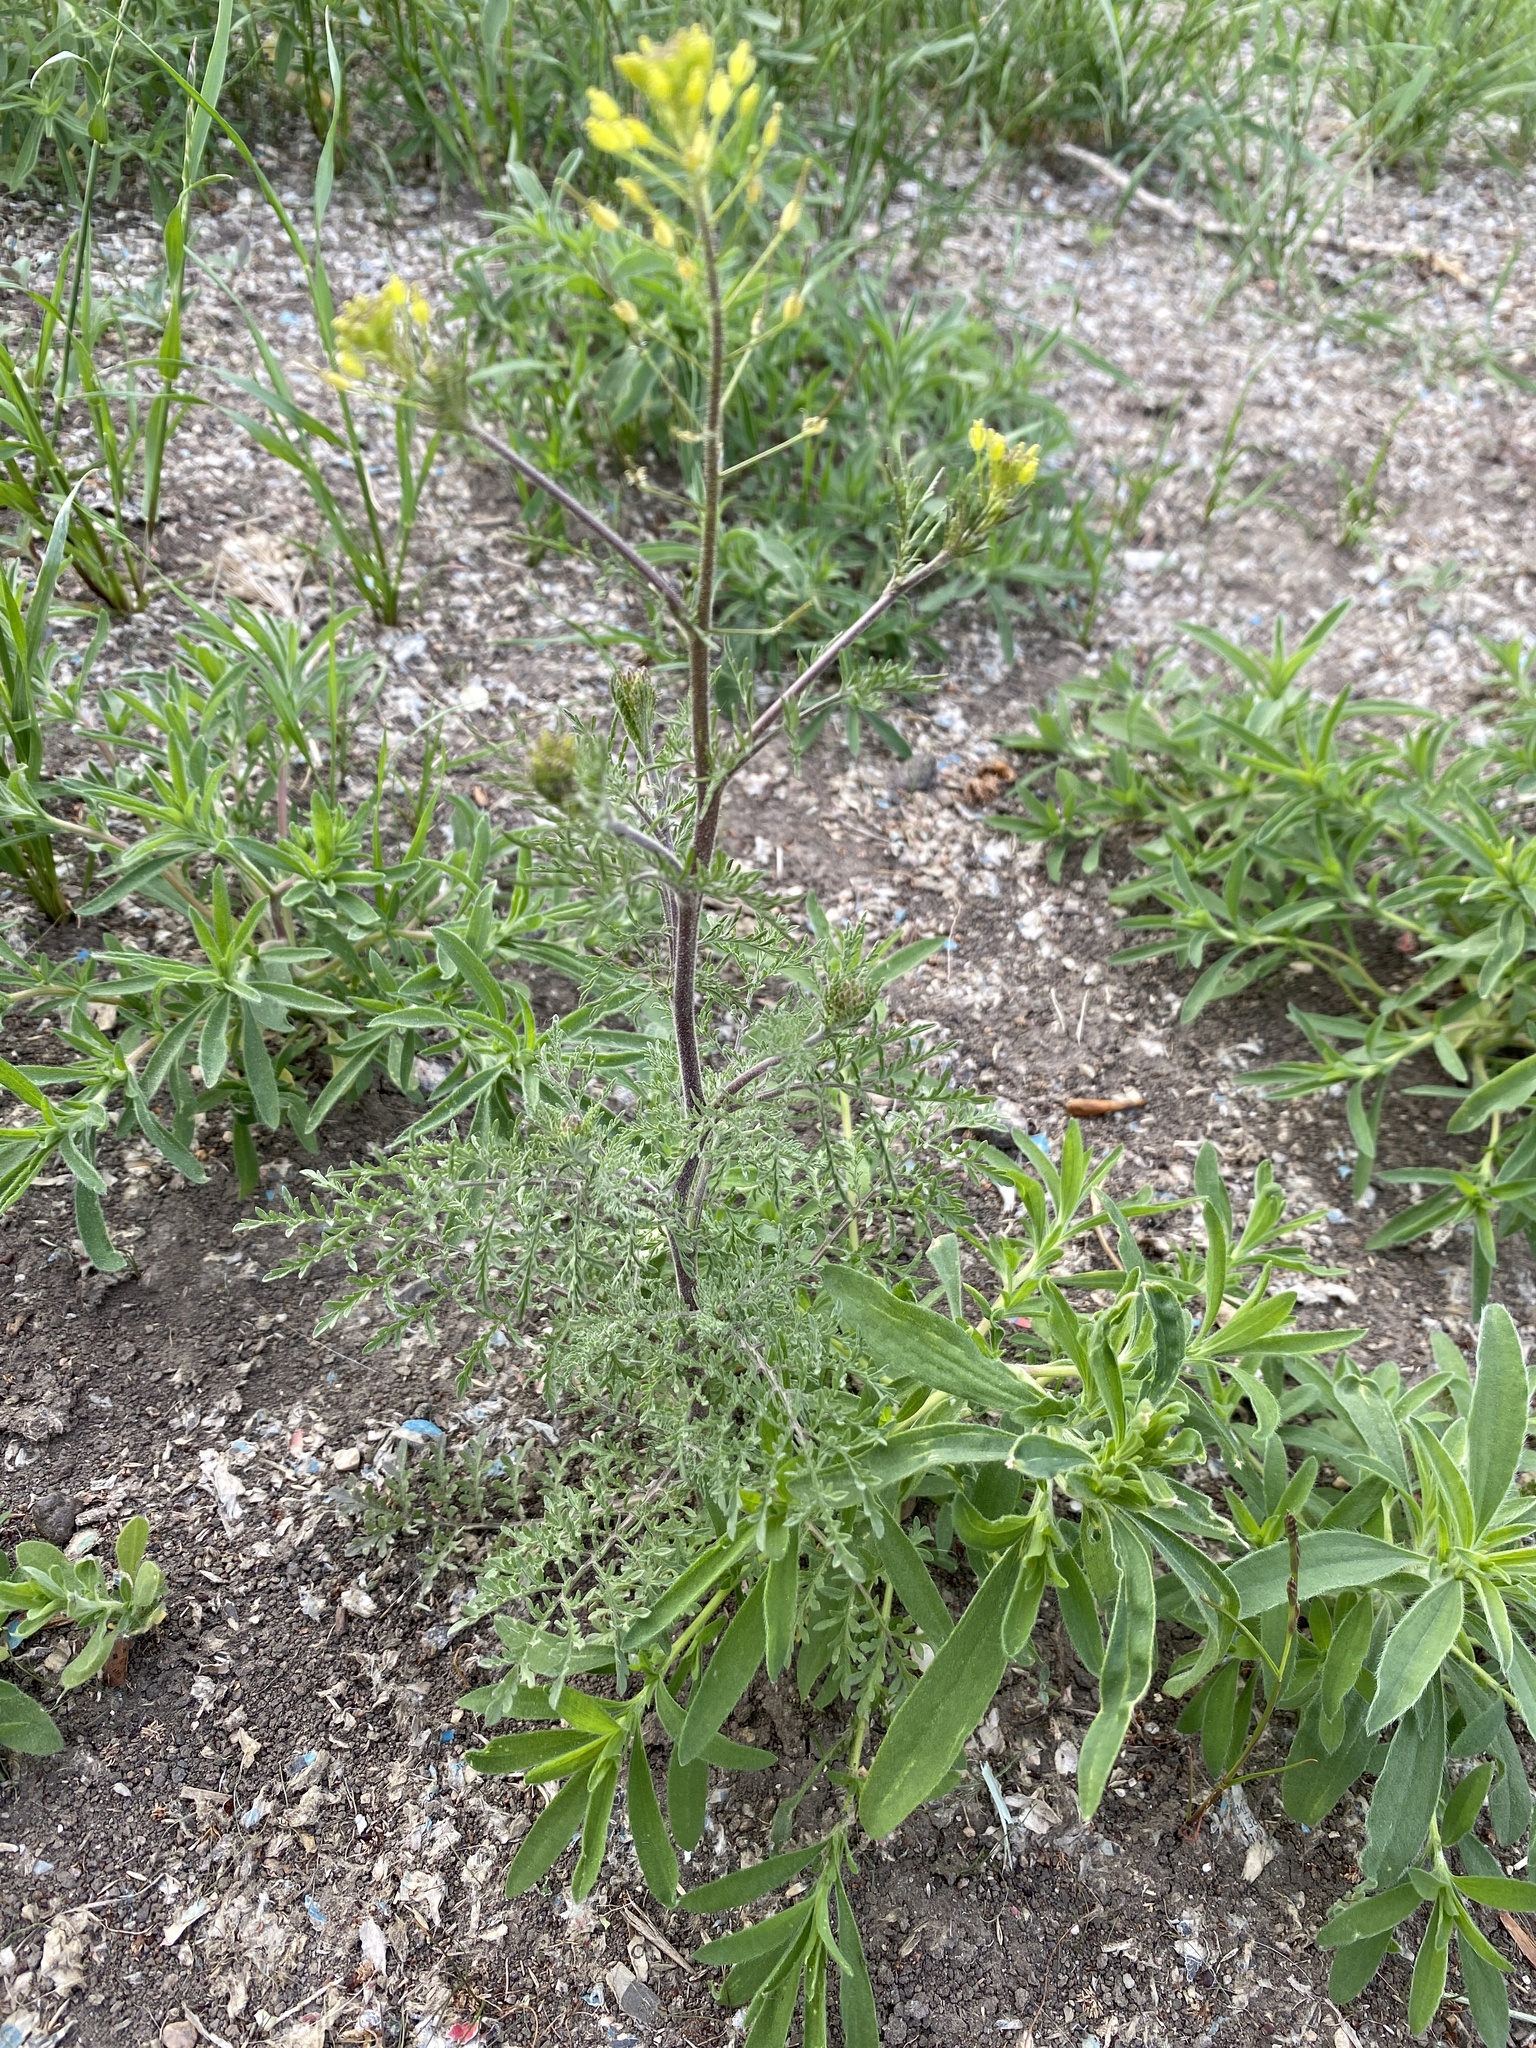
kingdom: Plantae
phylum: Tracheophyta
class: Magnoliopsida
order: Brassicales
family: Brassicaceae
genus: Descurainia
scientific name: Descurainia sophia
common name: Flixweed
